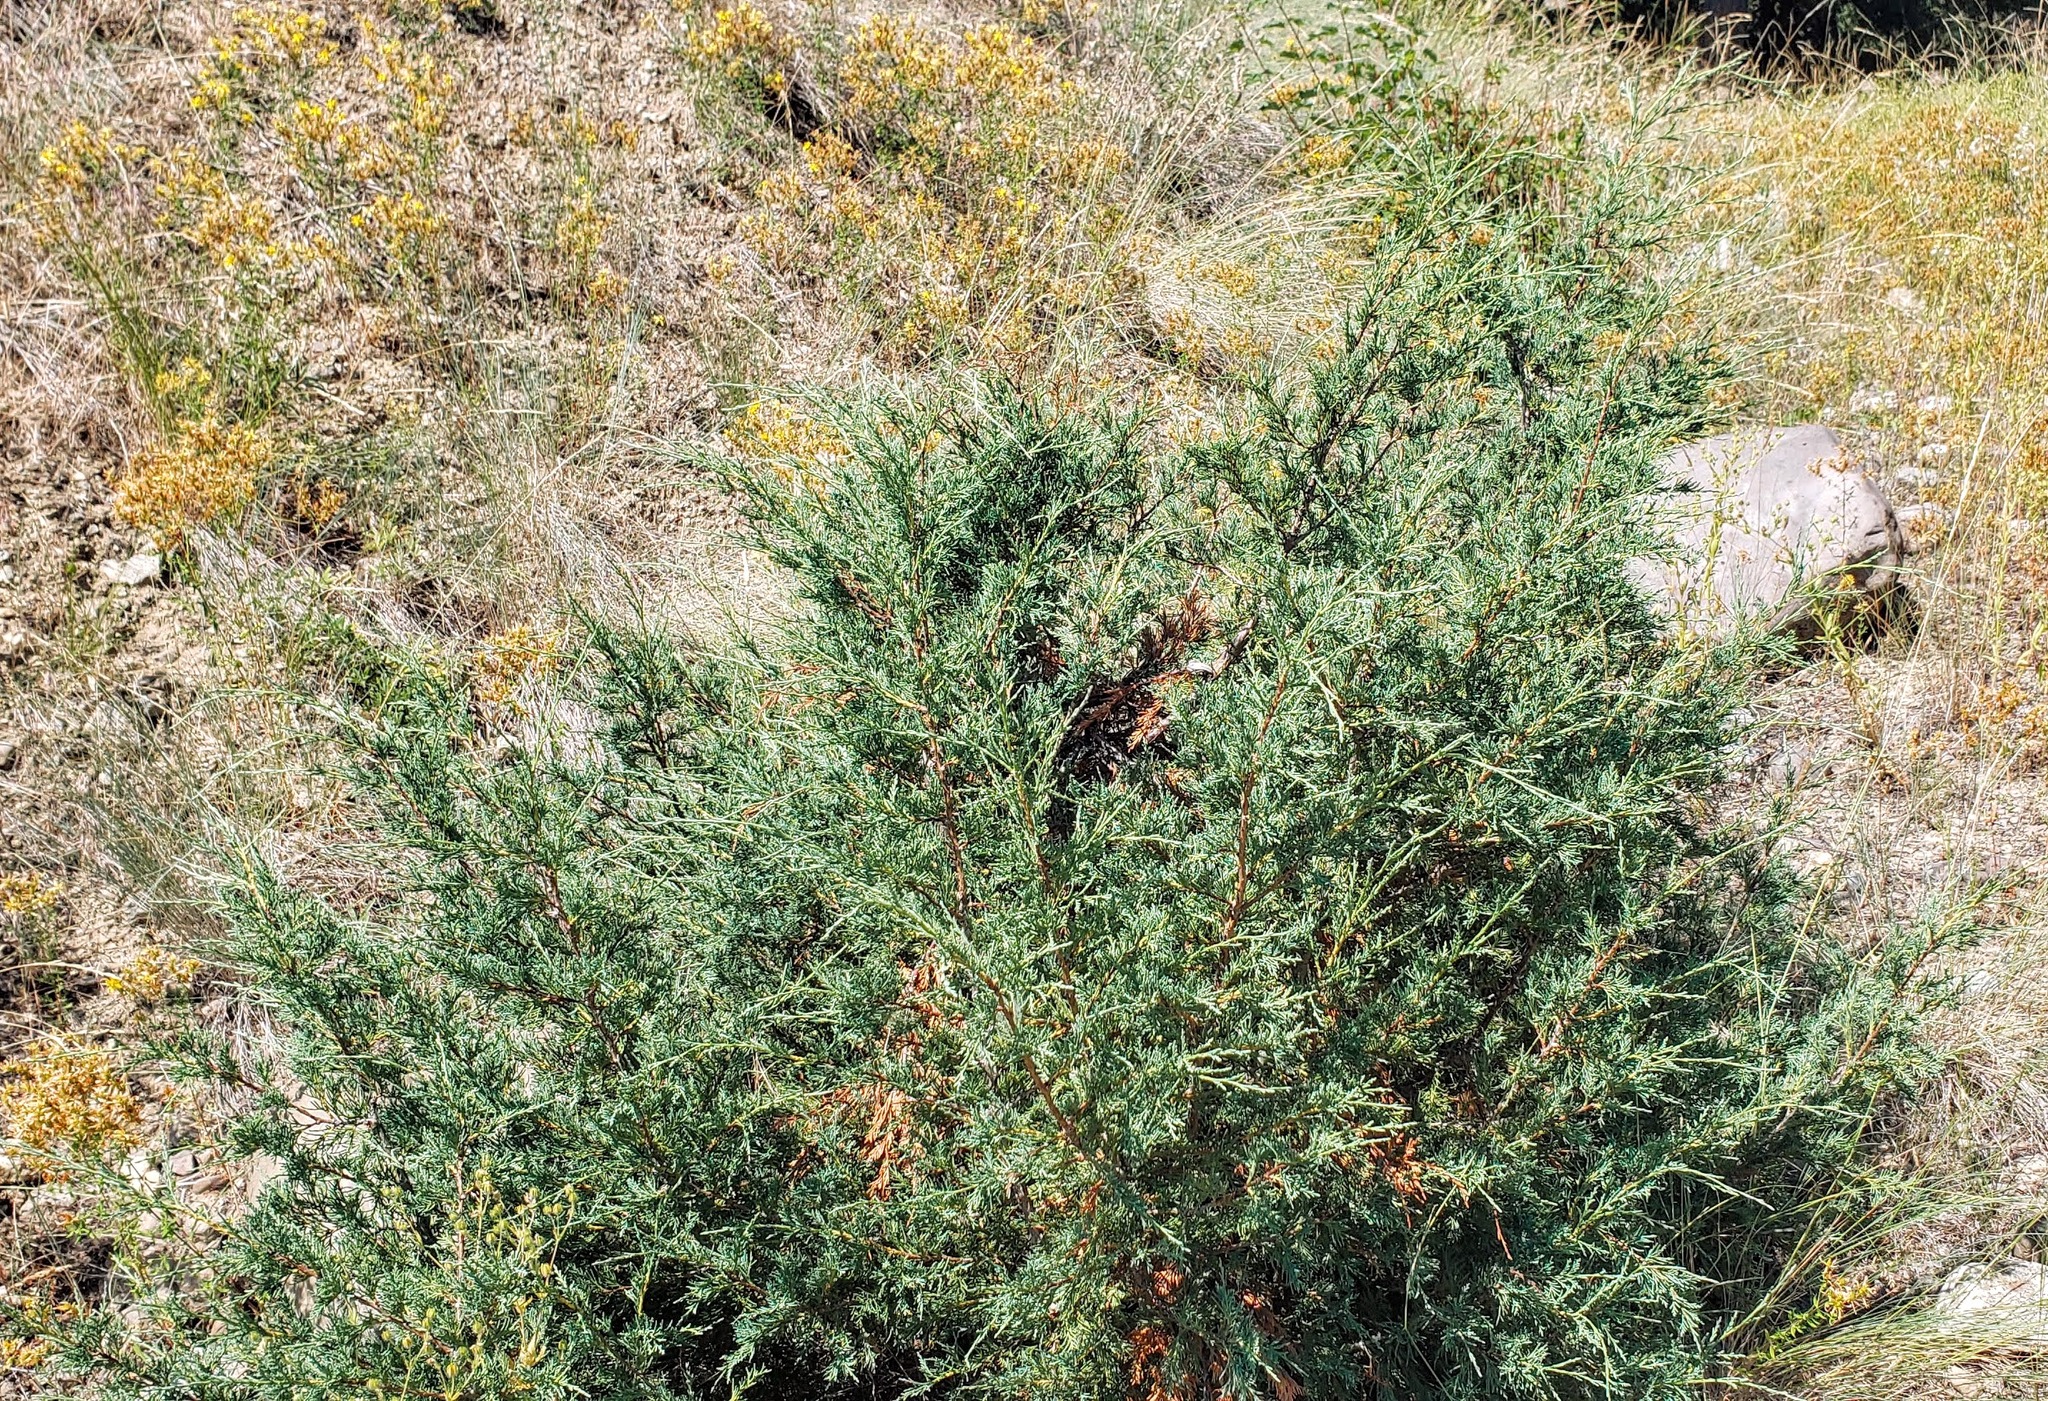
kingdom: Plantae
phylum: Tracheophyta
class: Pinopsida
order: Pinales
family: Cupressaceae
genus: Juniperus
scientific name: Juniperus scopulorum
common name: Rocky mountain juniper
